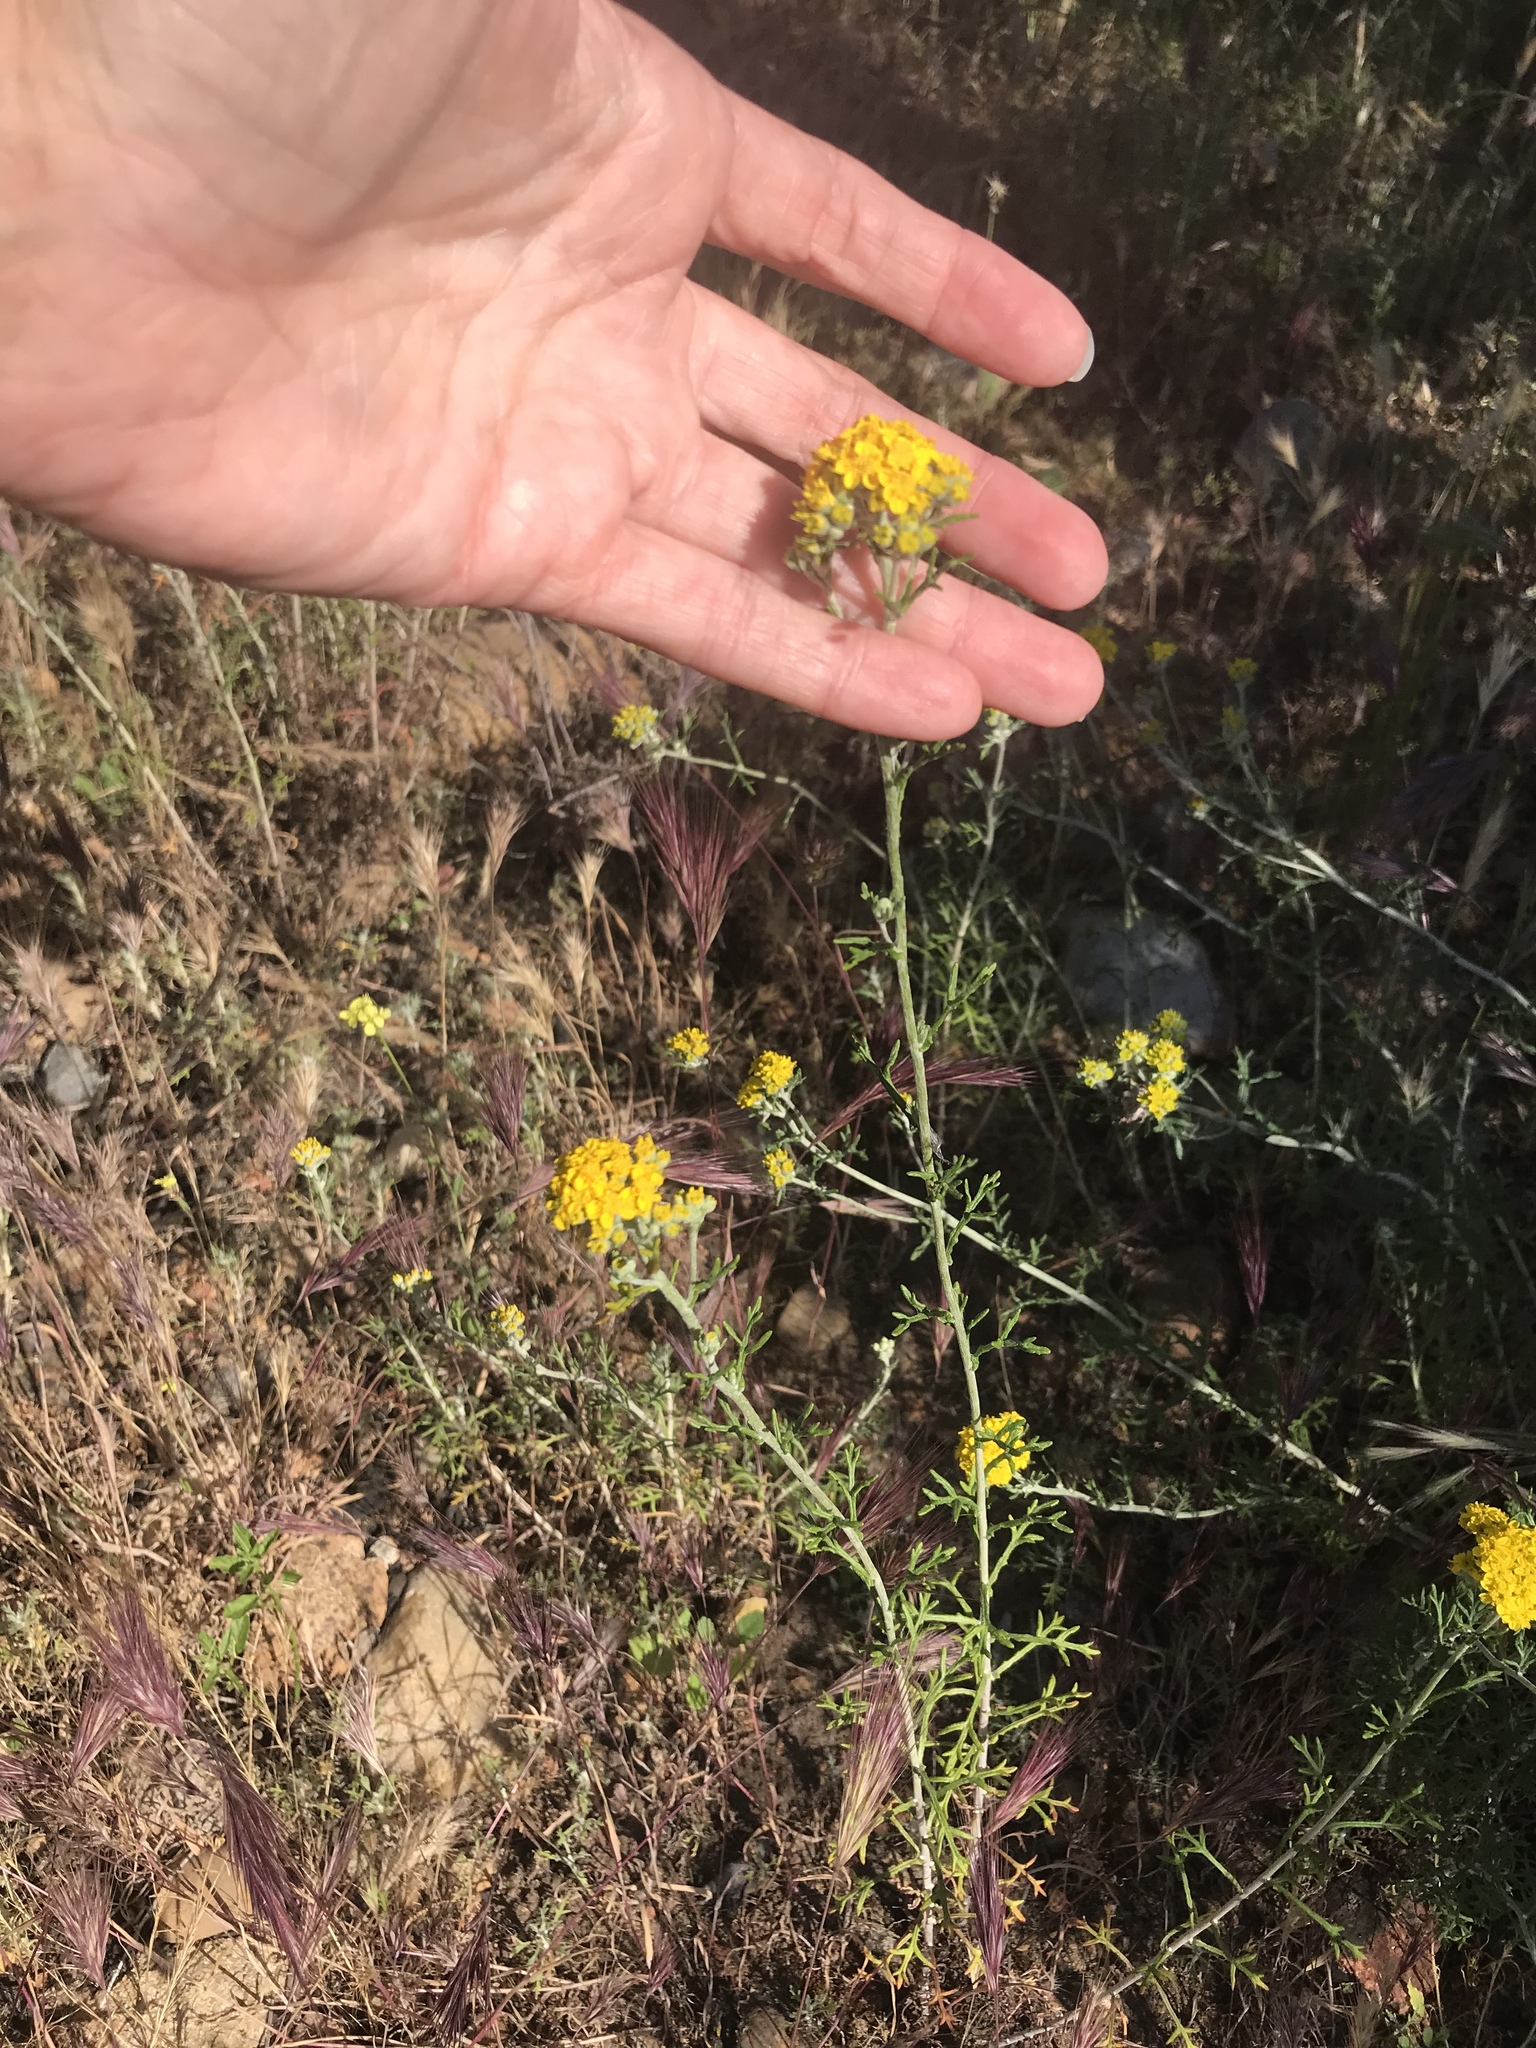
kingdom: Plantae
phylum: Tracheophyta
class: Magnoliopsida
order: Asterales
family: Asteraceae
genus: Eriophyllum
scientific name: Eriophyllum confertiflorum
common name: Golden-yarrow
